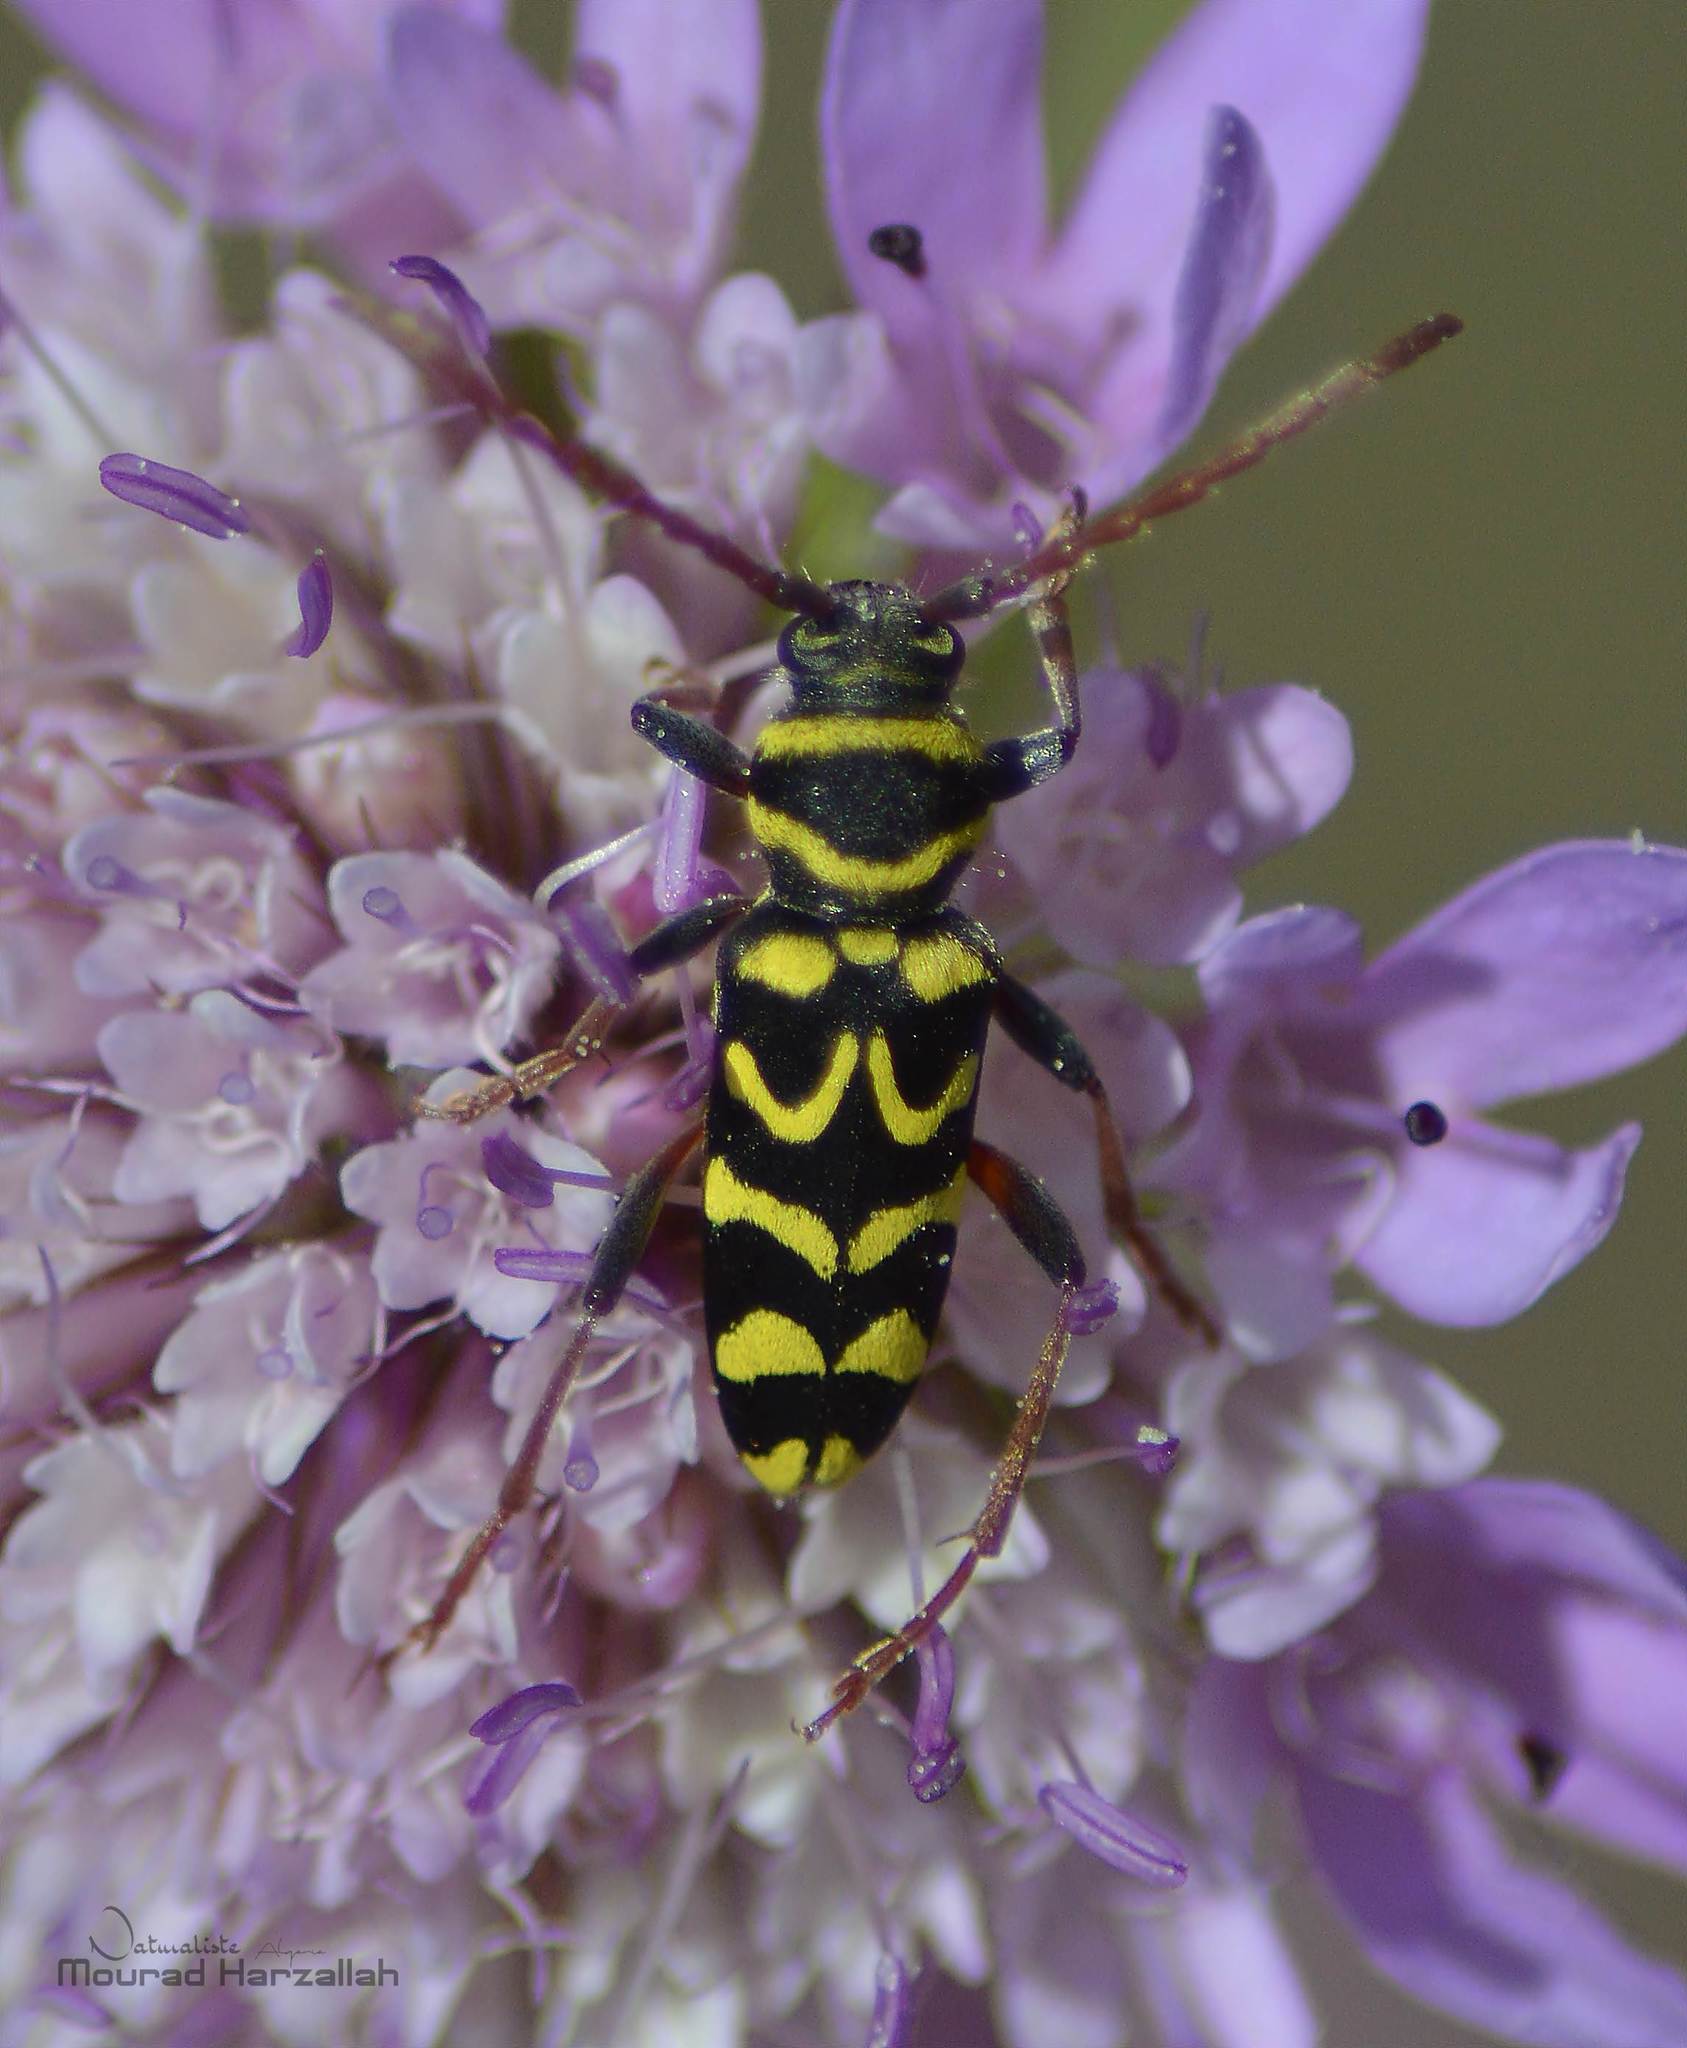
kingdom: Animalia
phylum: Arthropoda
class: Insecta
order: Coleoptera
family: Cerambycidae
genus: Neoplagionotus
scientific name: Neoplagionotus scalaris
